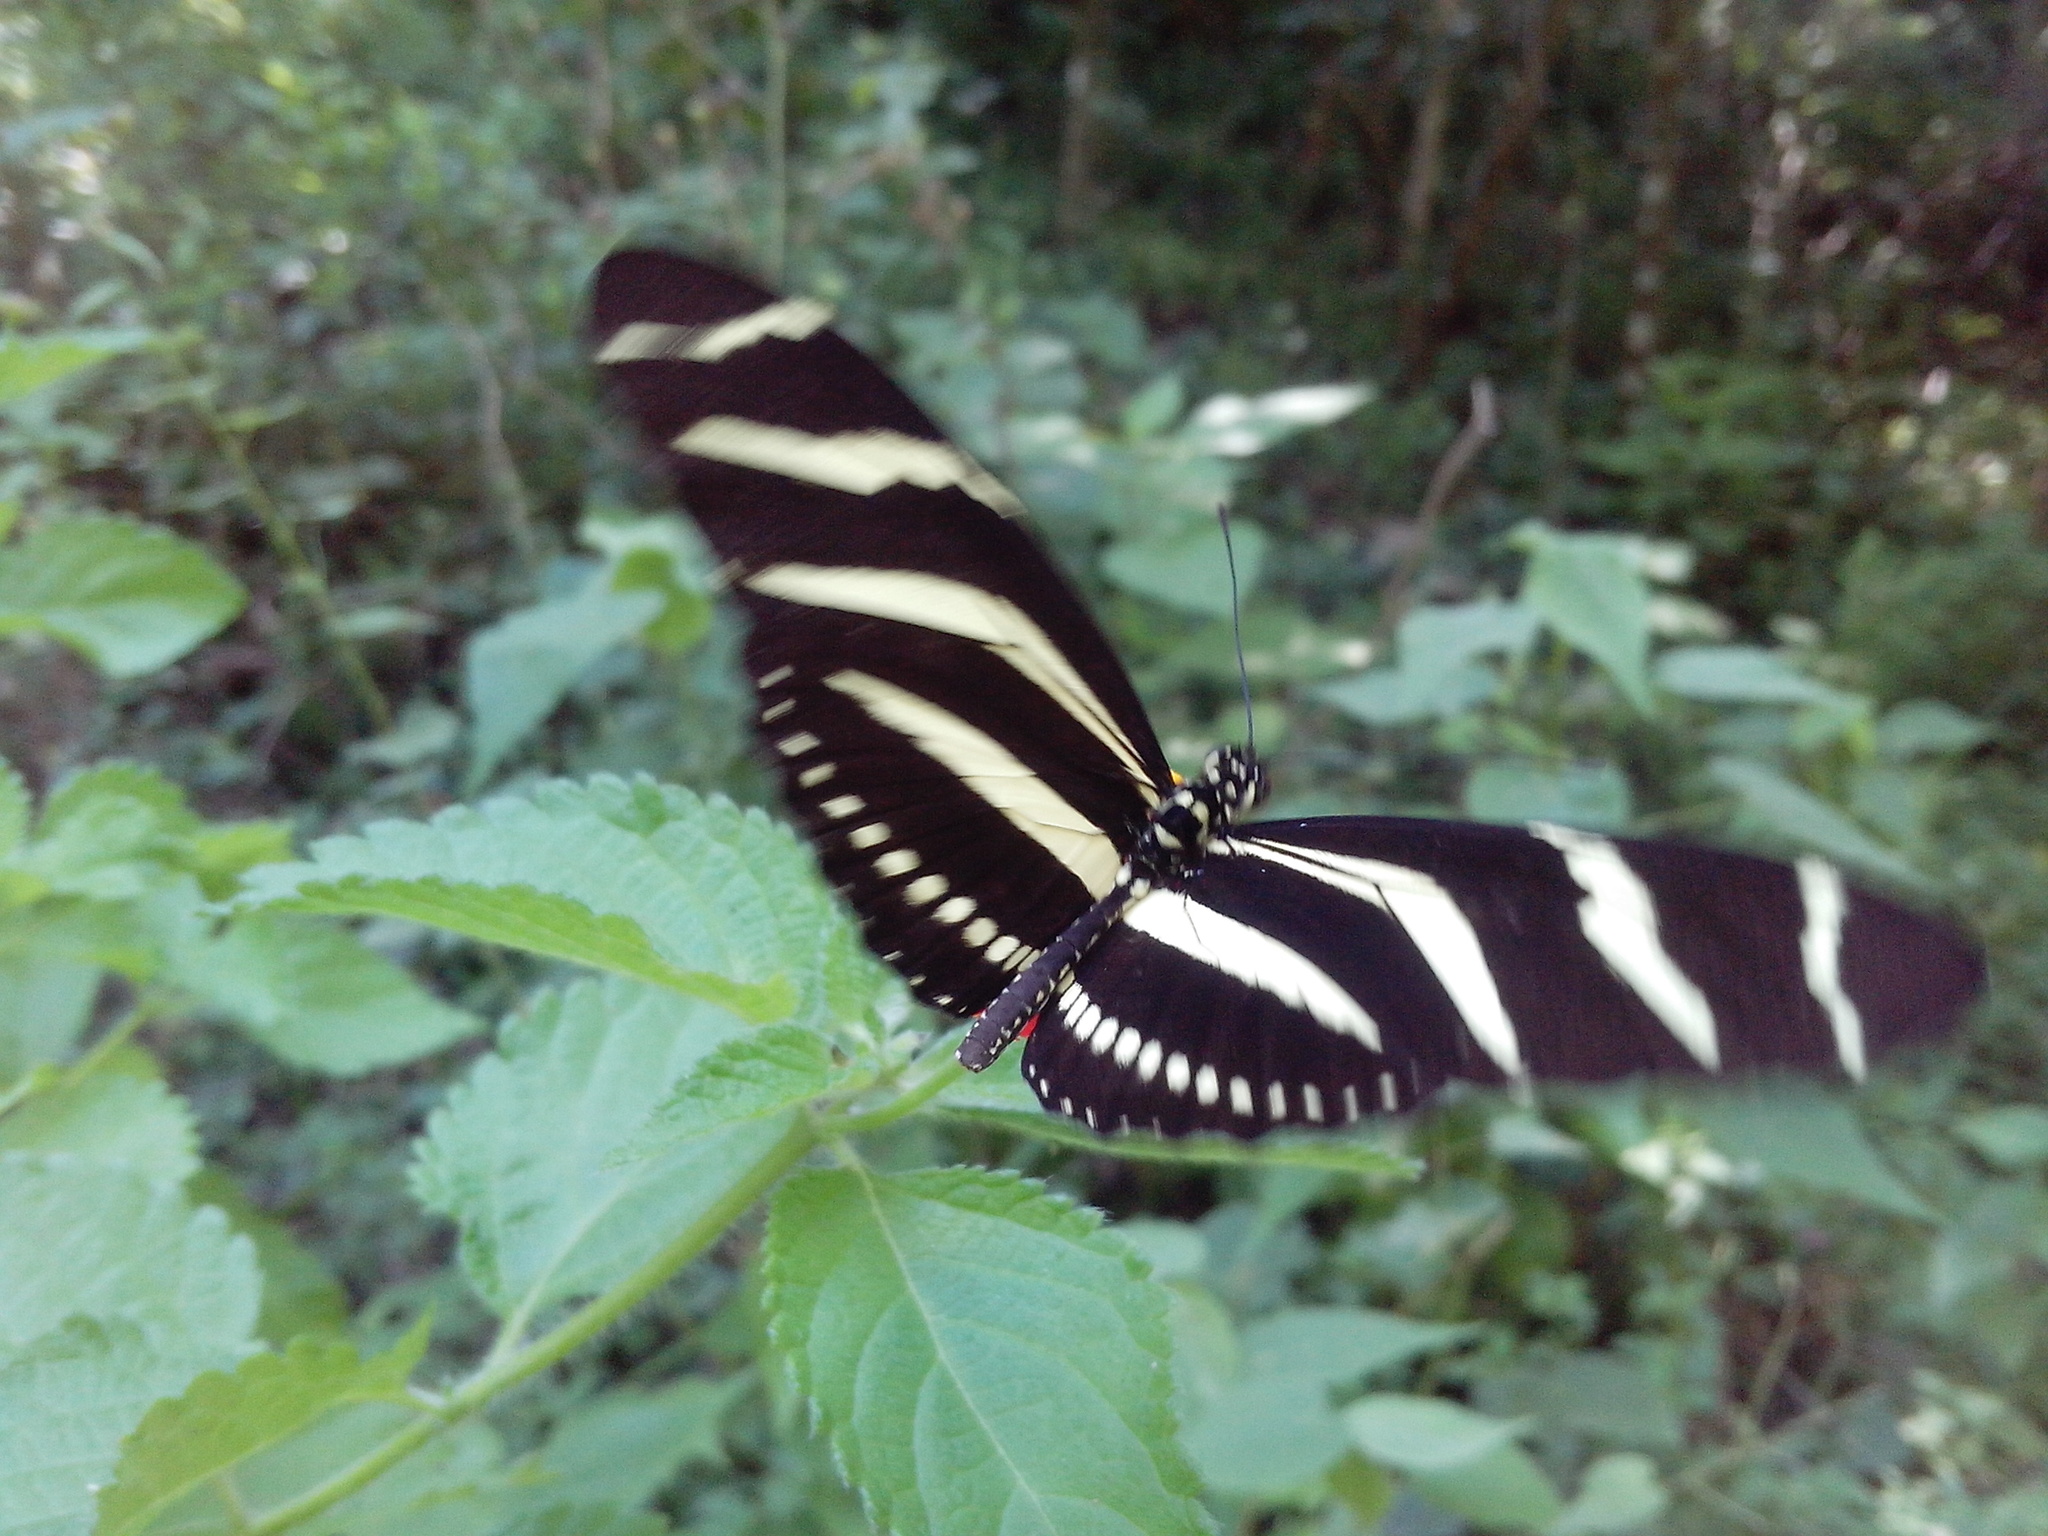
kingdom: Animalia
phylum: Arthropoda
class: Insecta
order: Lepidoptera
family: Nymphalidae
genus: Heliconius
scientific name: Heliconius charithonia
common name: Zebra long wing
